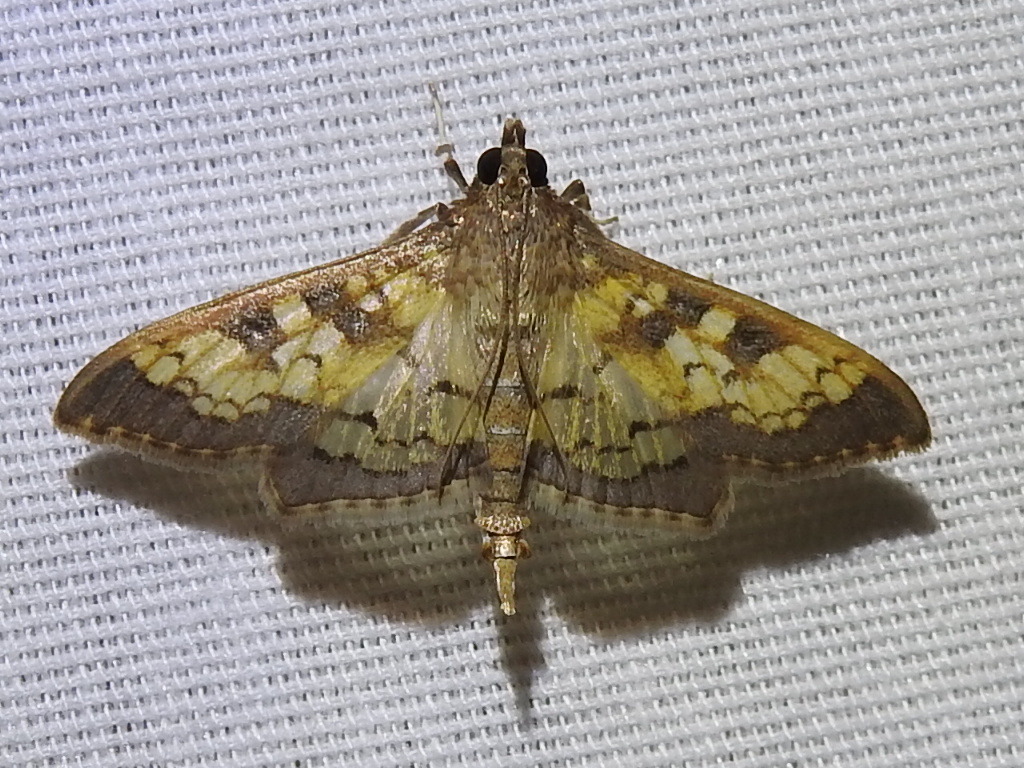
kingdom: Animalia
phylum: Arthropoda
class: Insecta
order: Lepidoptera
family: Crambidae
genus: Cryptographis
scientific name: Cryptographis elealis
